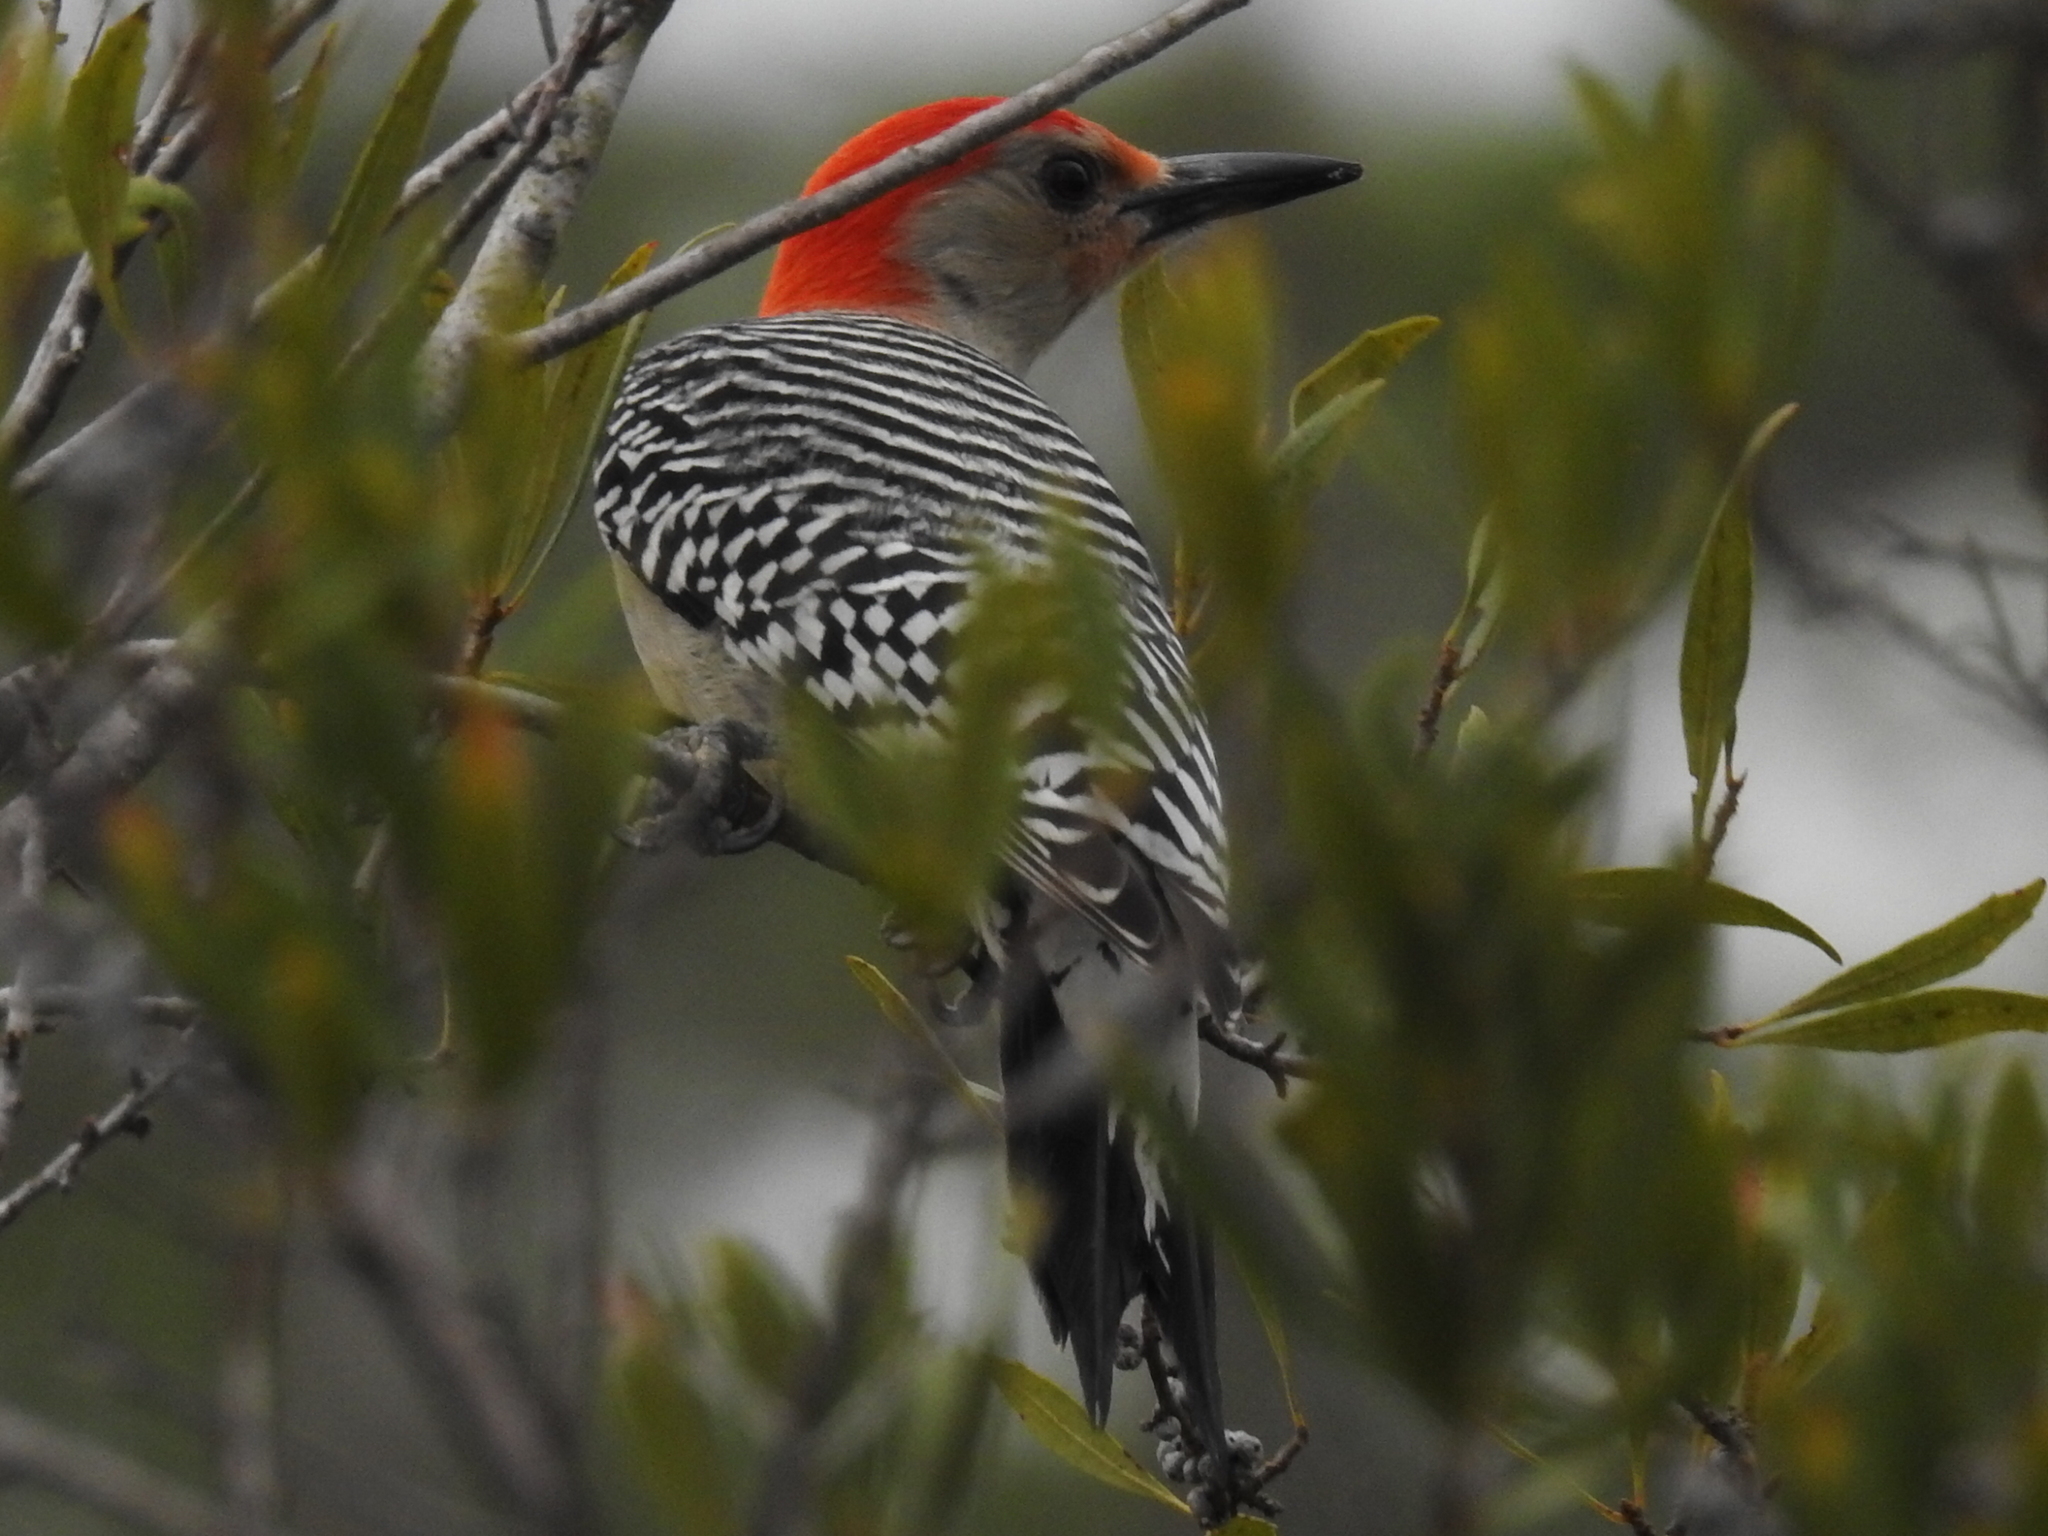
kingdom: Animalia
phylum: Chordata
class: Aves
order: Piciformes
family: Picidae
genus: Melanerpes
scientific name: Melanerpes carolinus
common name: Red-bellied woodpecker
